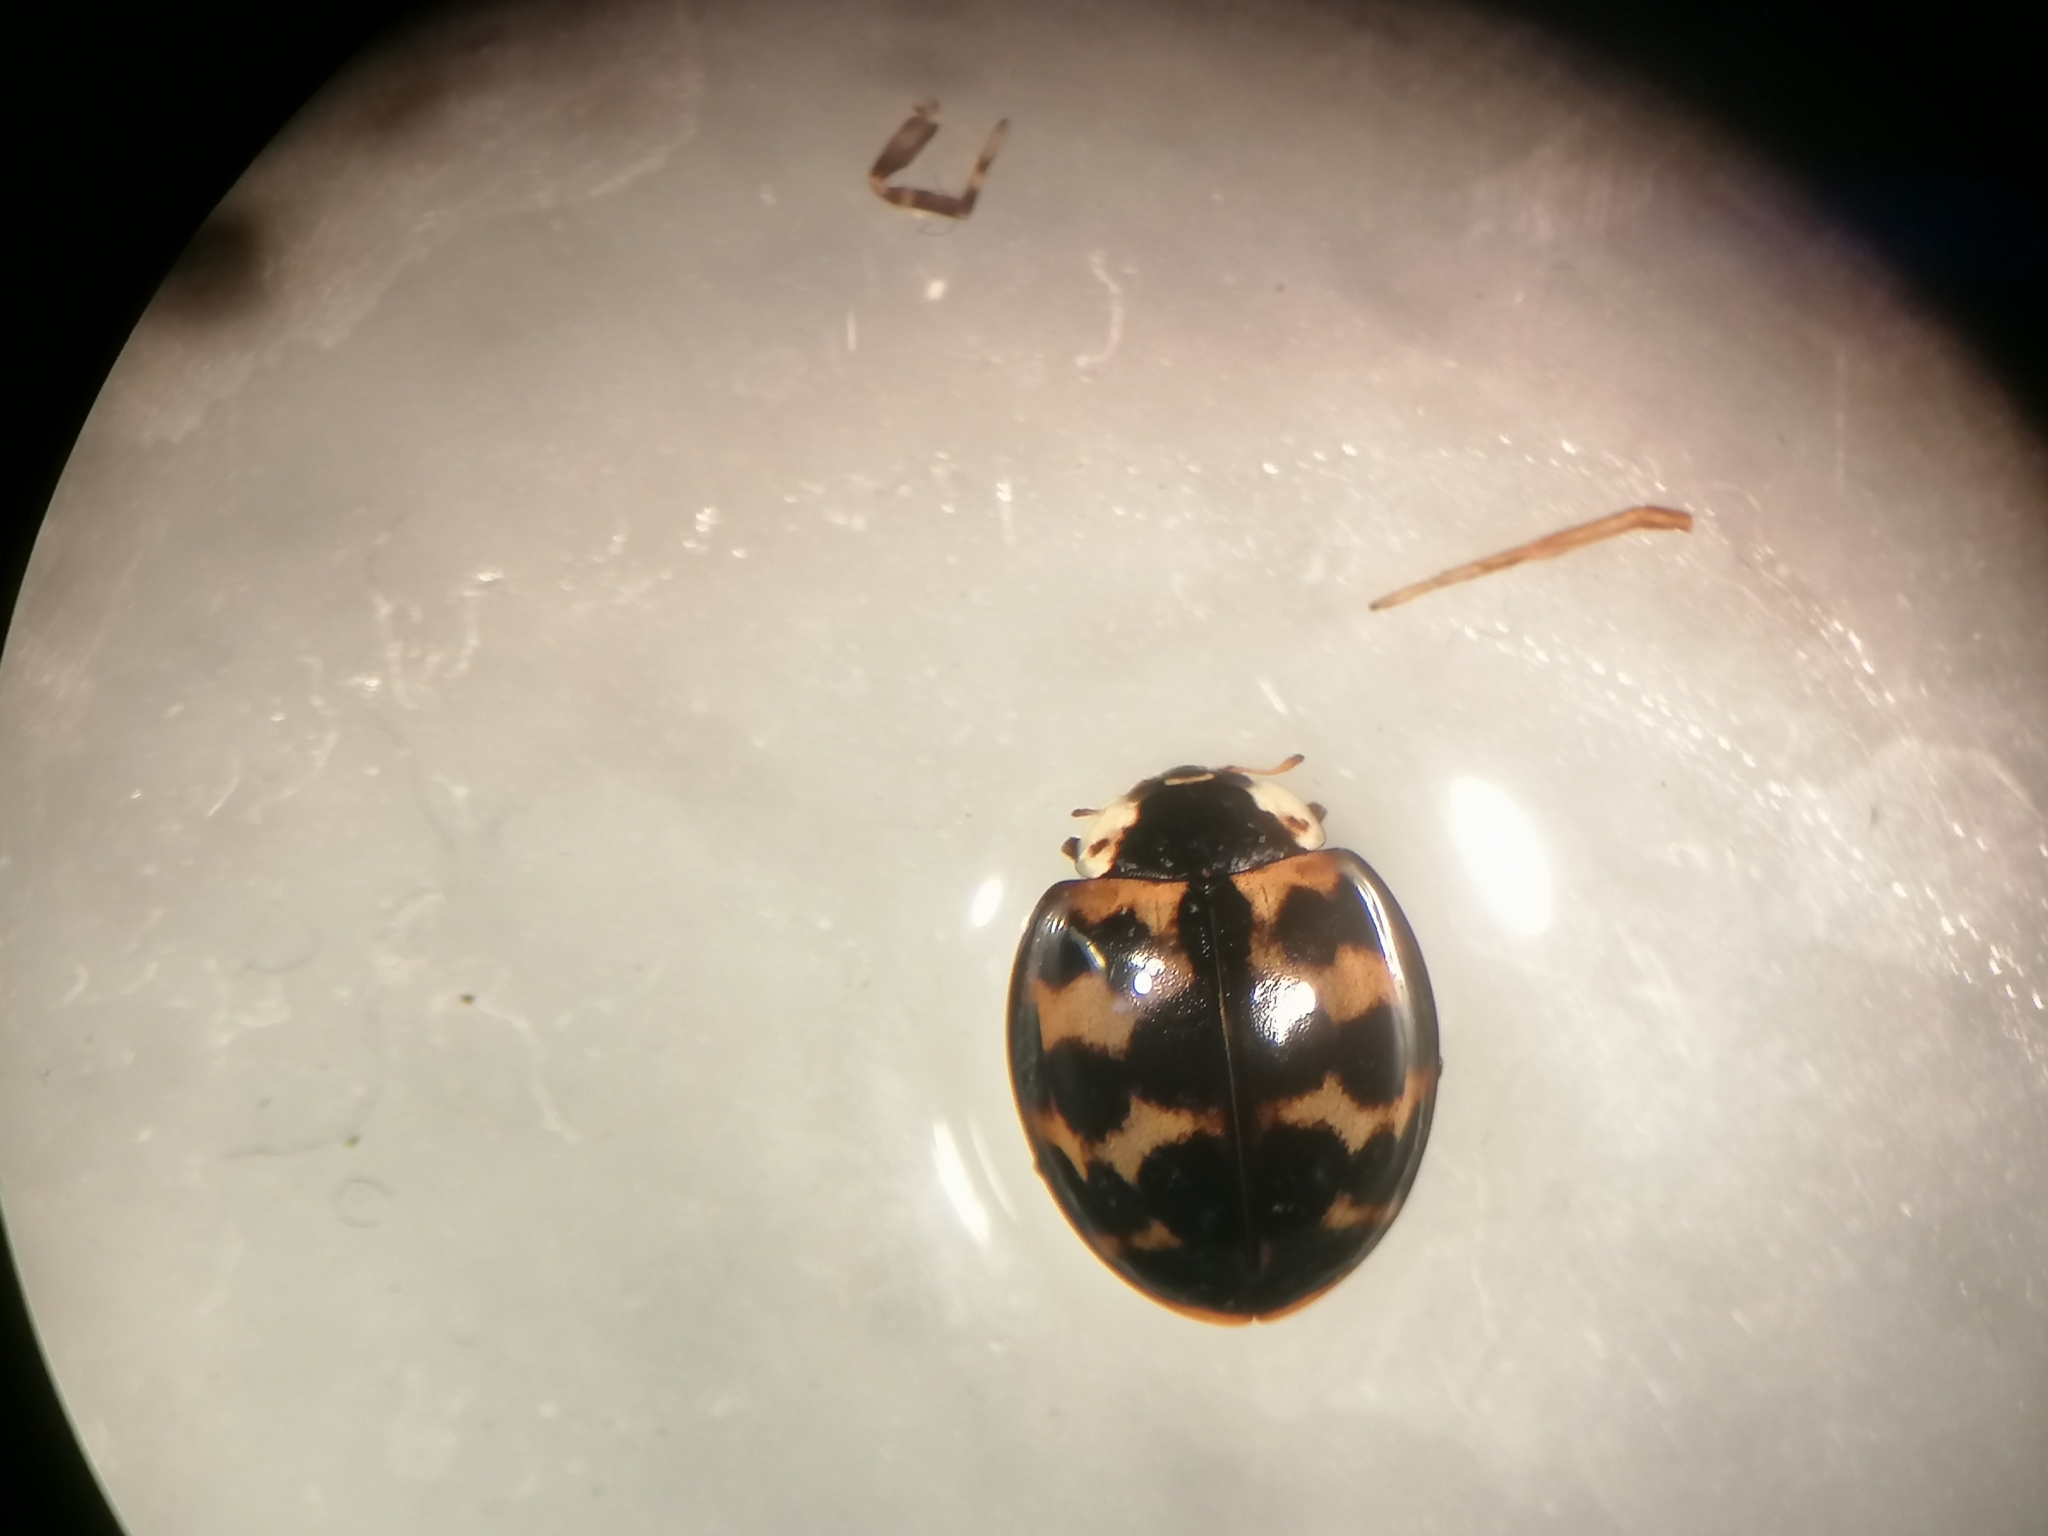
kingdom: Animalia
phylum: Arthropoda
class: Insecta
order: Coleoptera
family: Coccinellidae
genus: Harmonia
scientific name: Harmonia axyridis
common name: Harlequin ladybird
